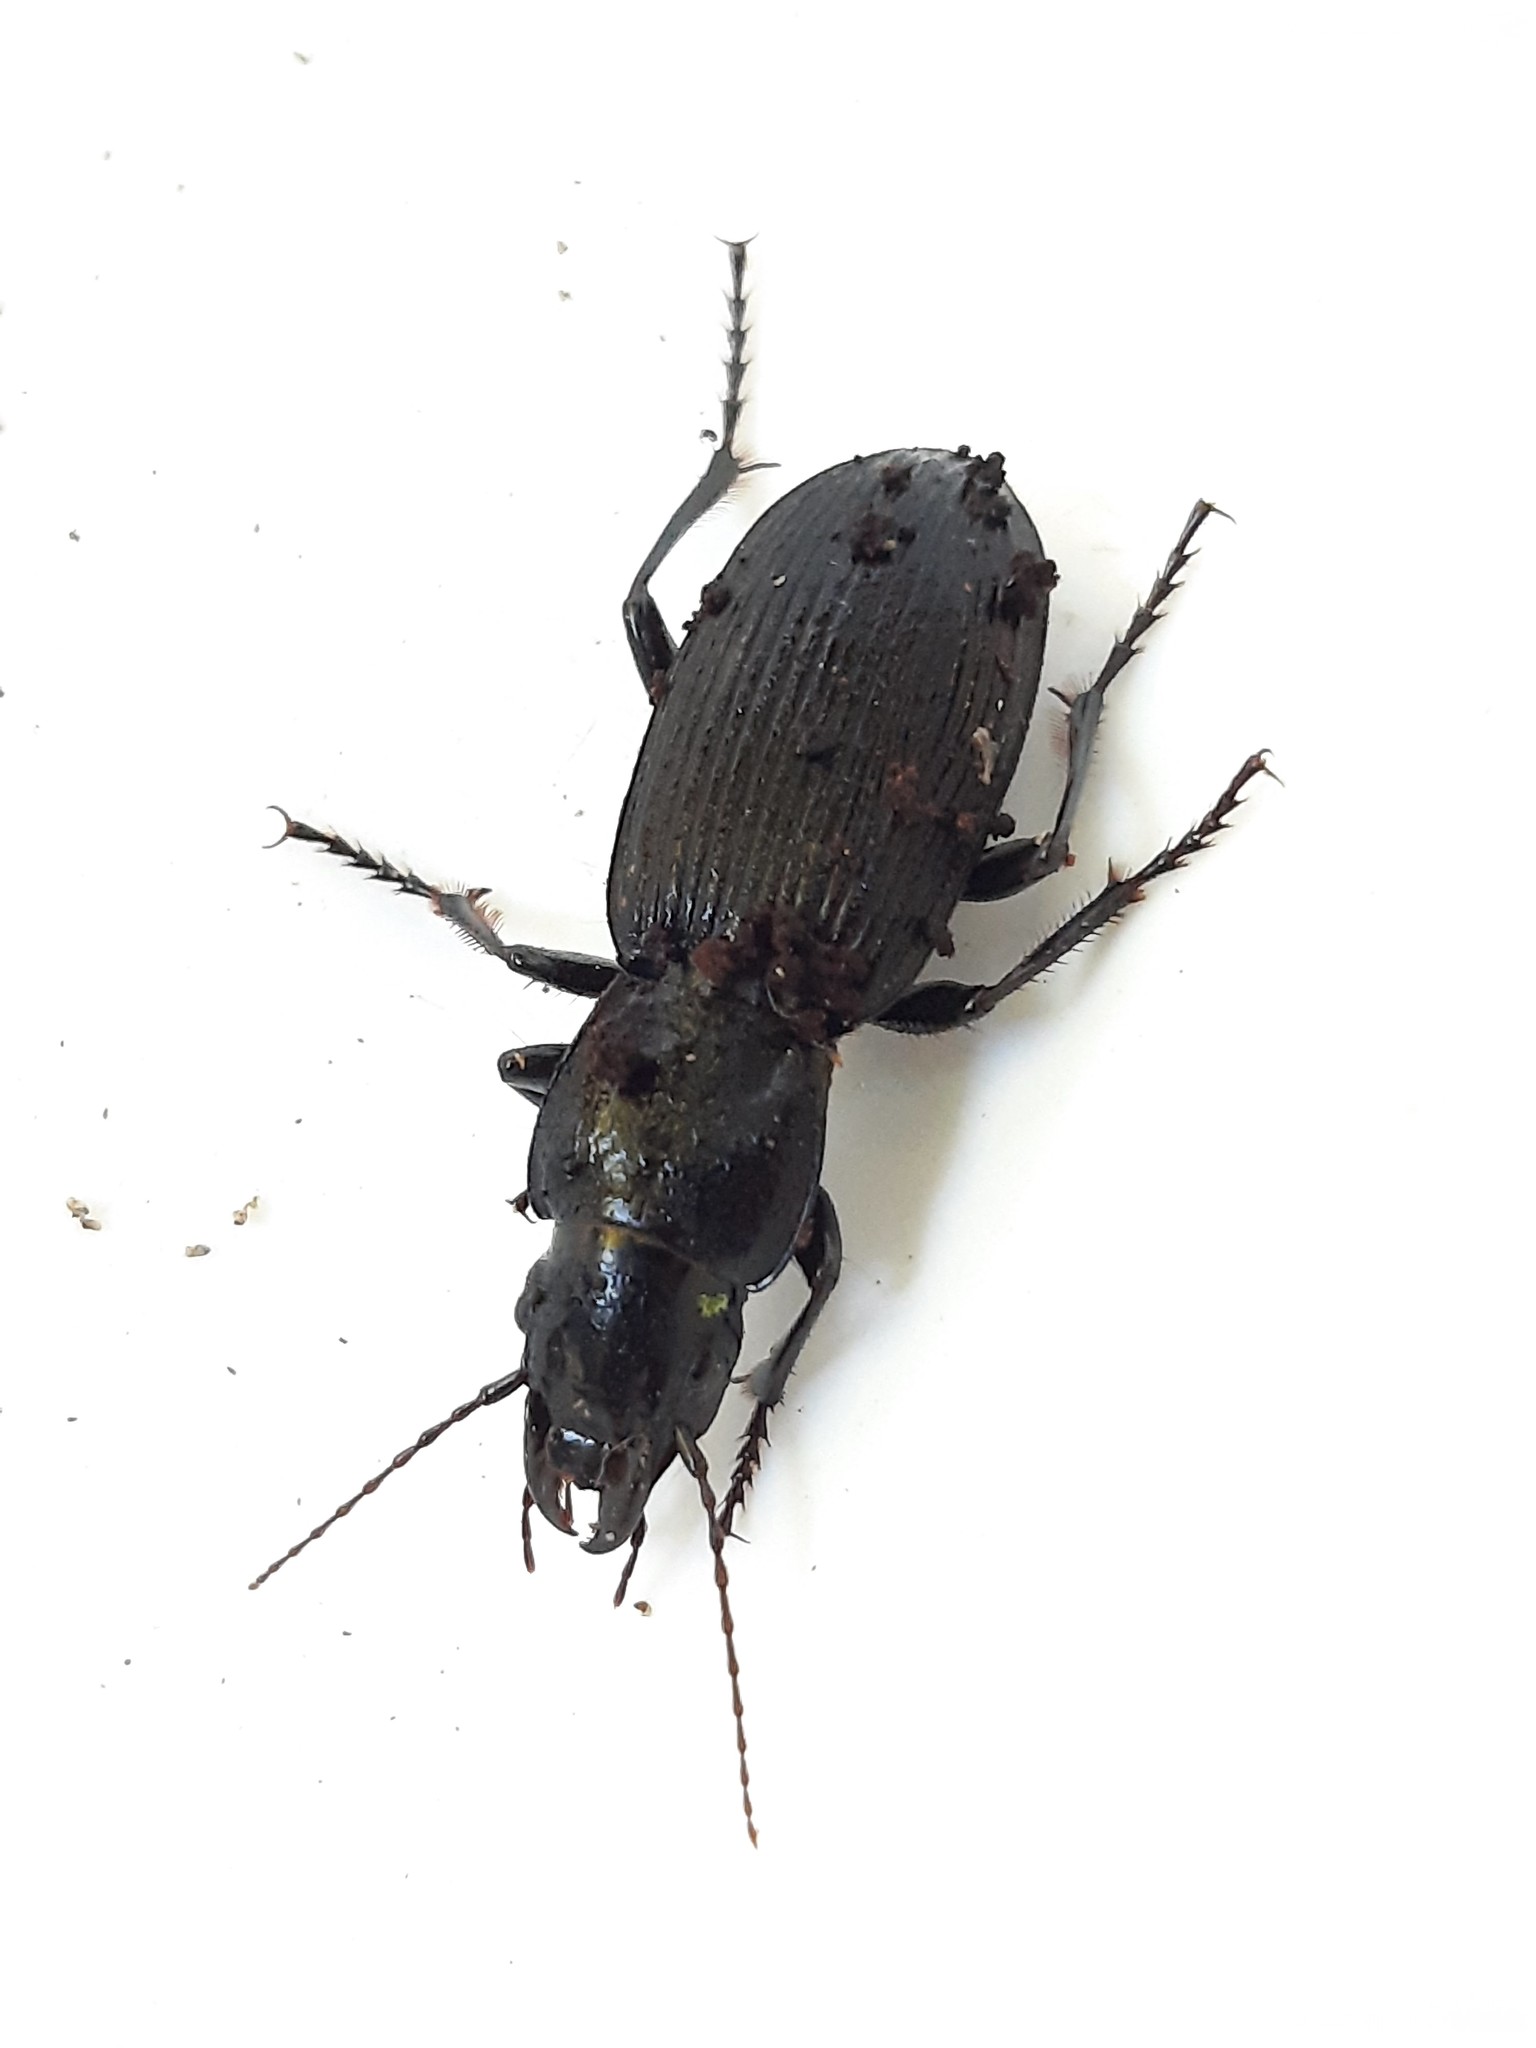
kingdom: Animalia
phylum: Arthropoda
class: Insecta
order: Coleoptera
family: Carabidae
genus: Plocamostethus
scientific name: Plocamostethus planiusculus
